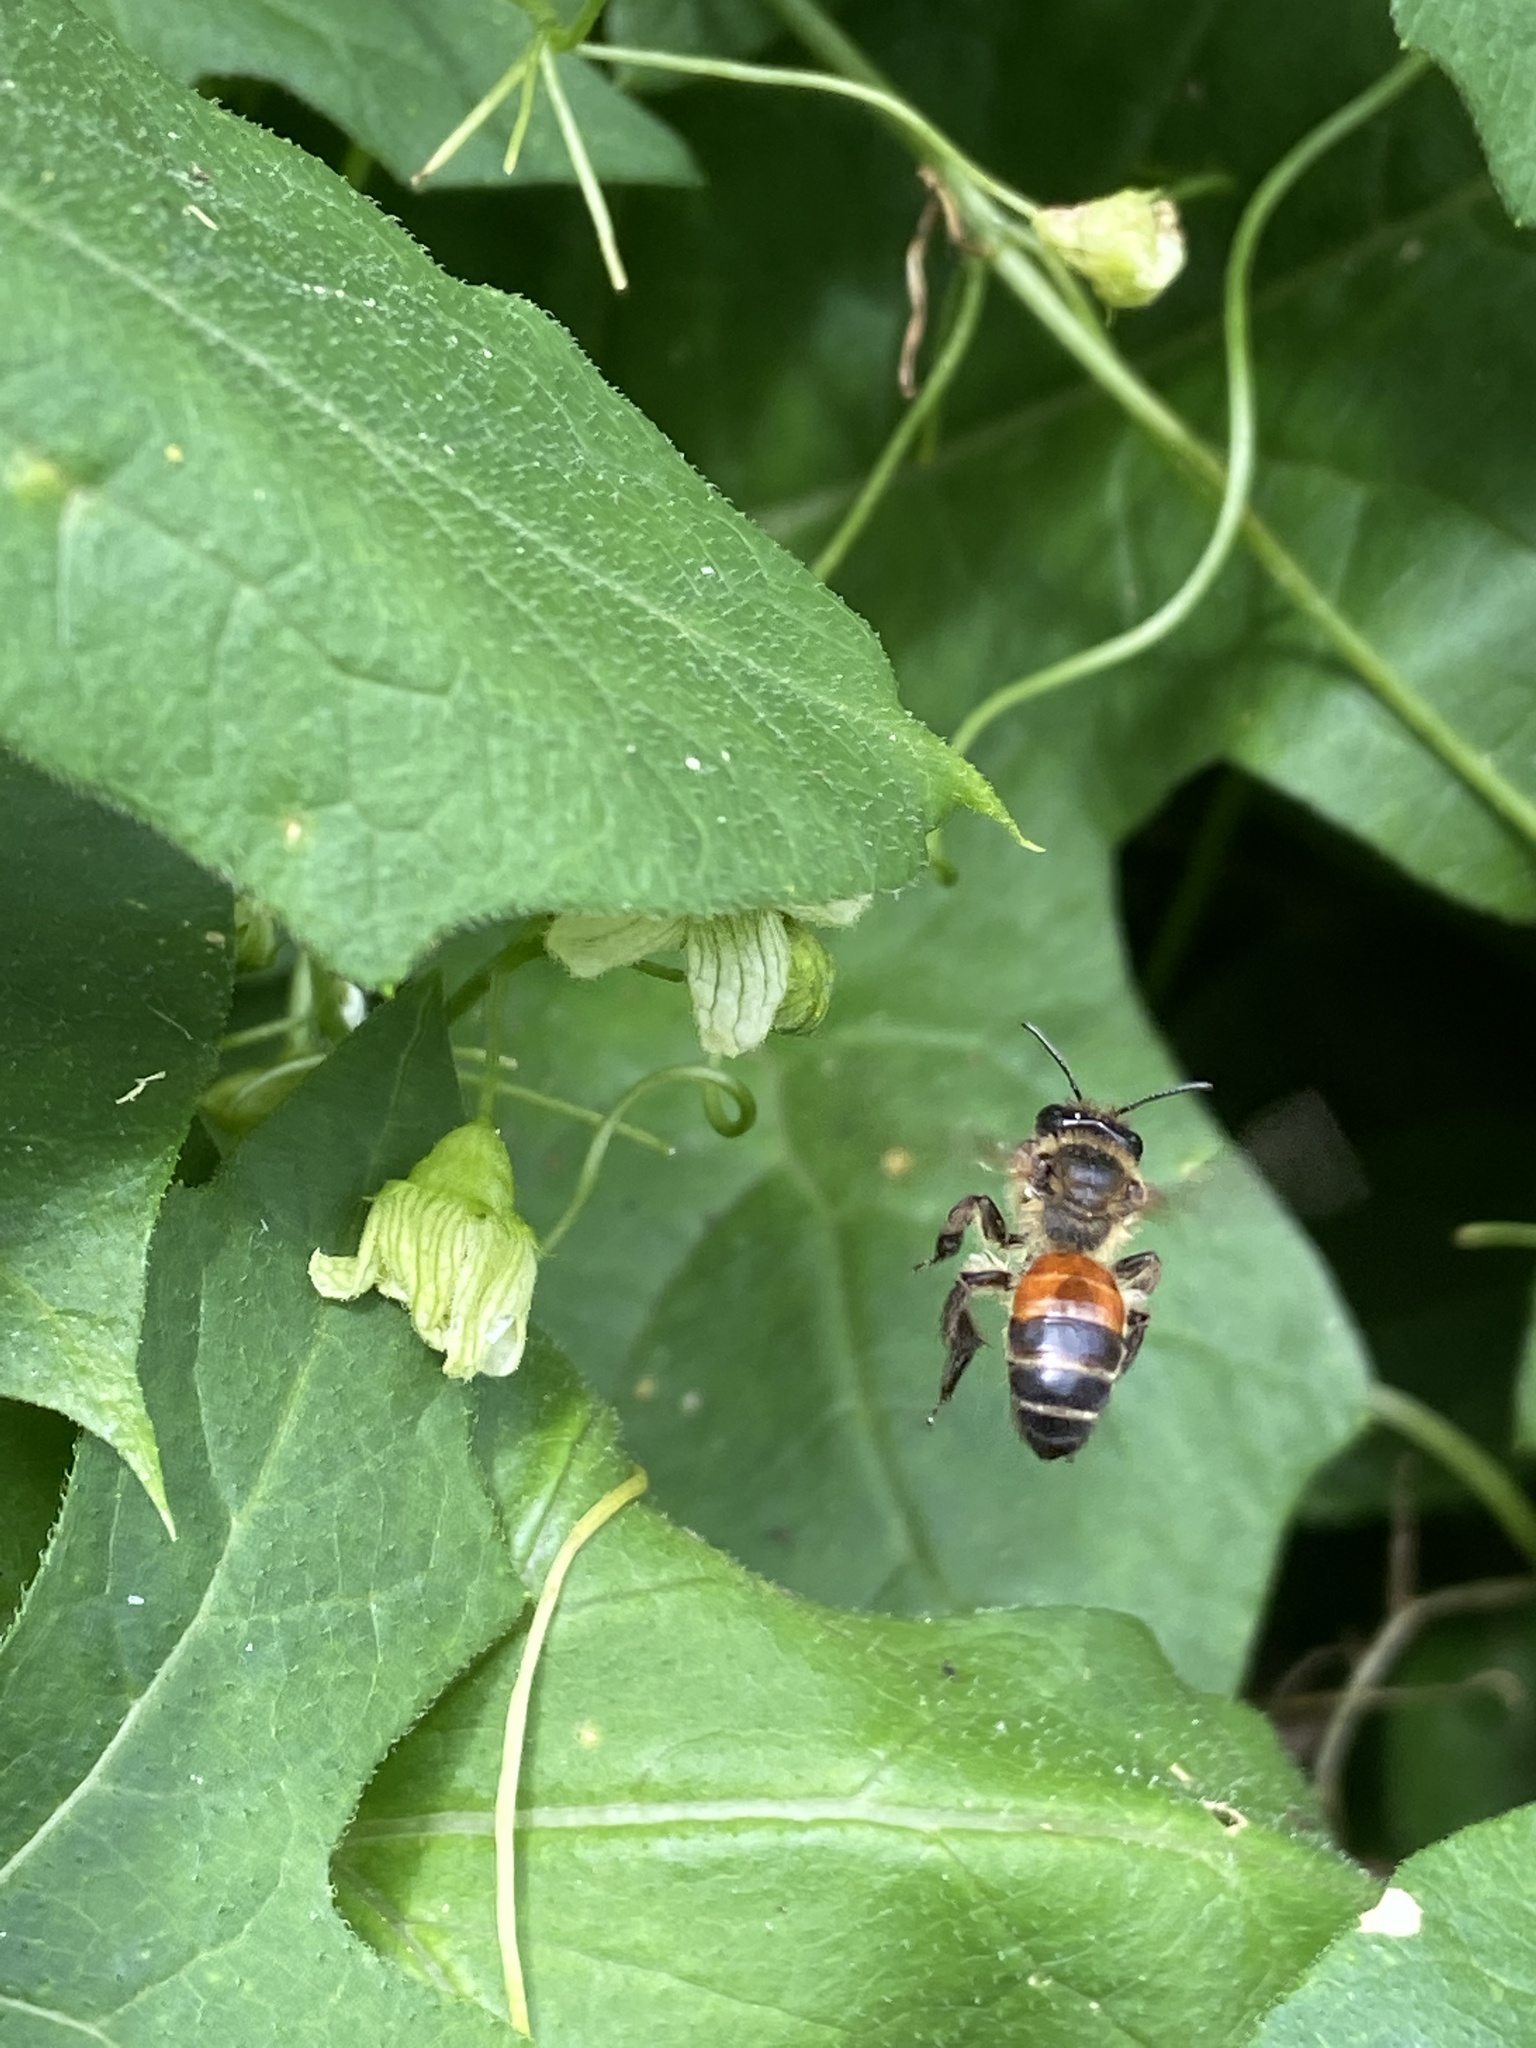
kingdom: Animalia
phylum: Arthropoda
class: Insecta
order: Hymenoptera
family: Andrenidae
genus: Andrena
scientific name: Andrena florea
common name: Bryony mining bee
